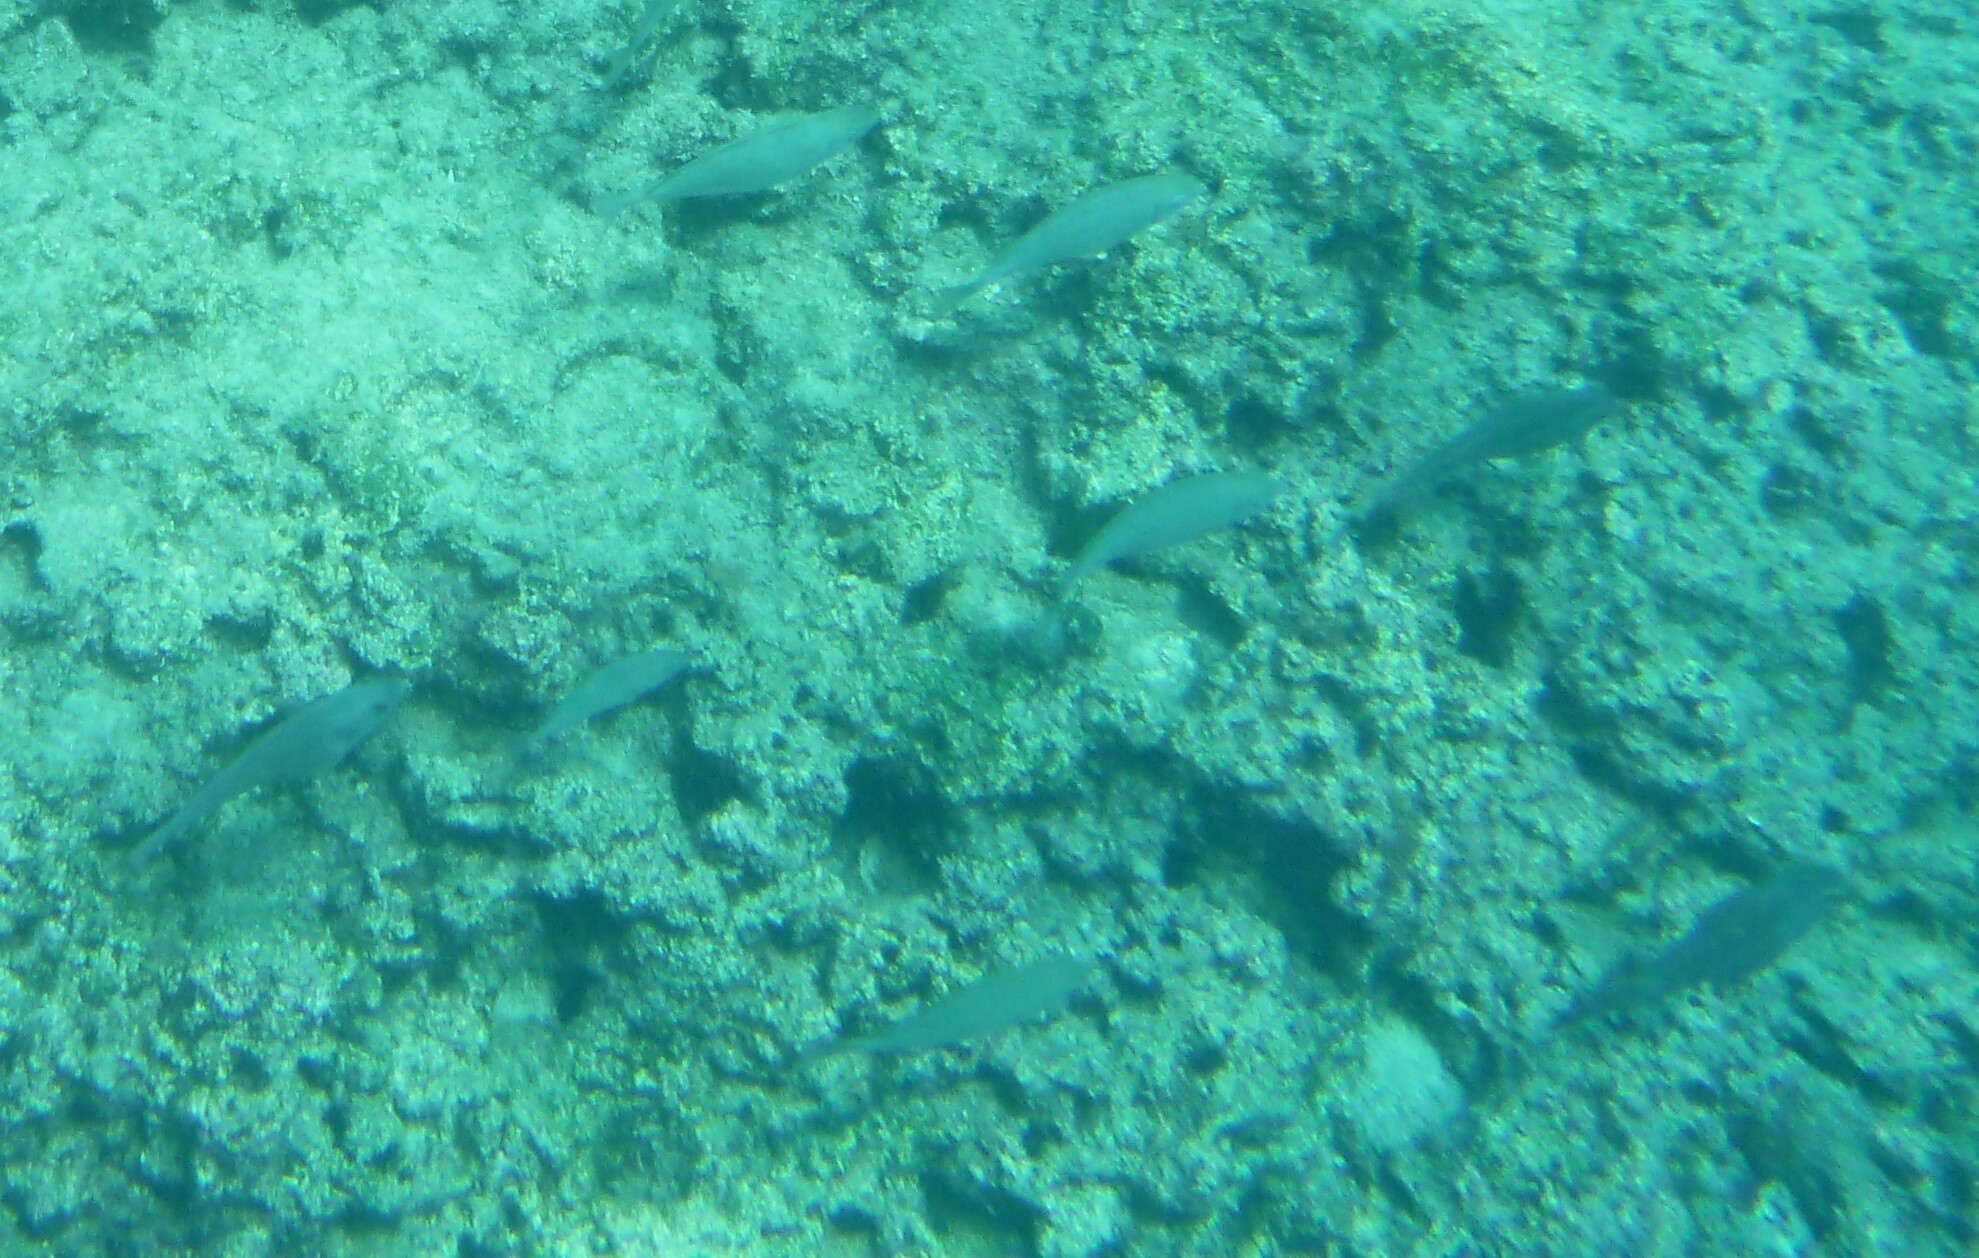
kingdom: Animalia
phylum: Chordata
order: Perciformes
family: Siganidae
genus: Siganus
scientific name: Siganus
